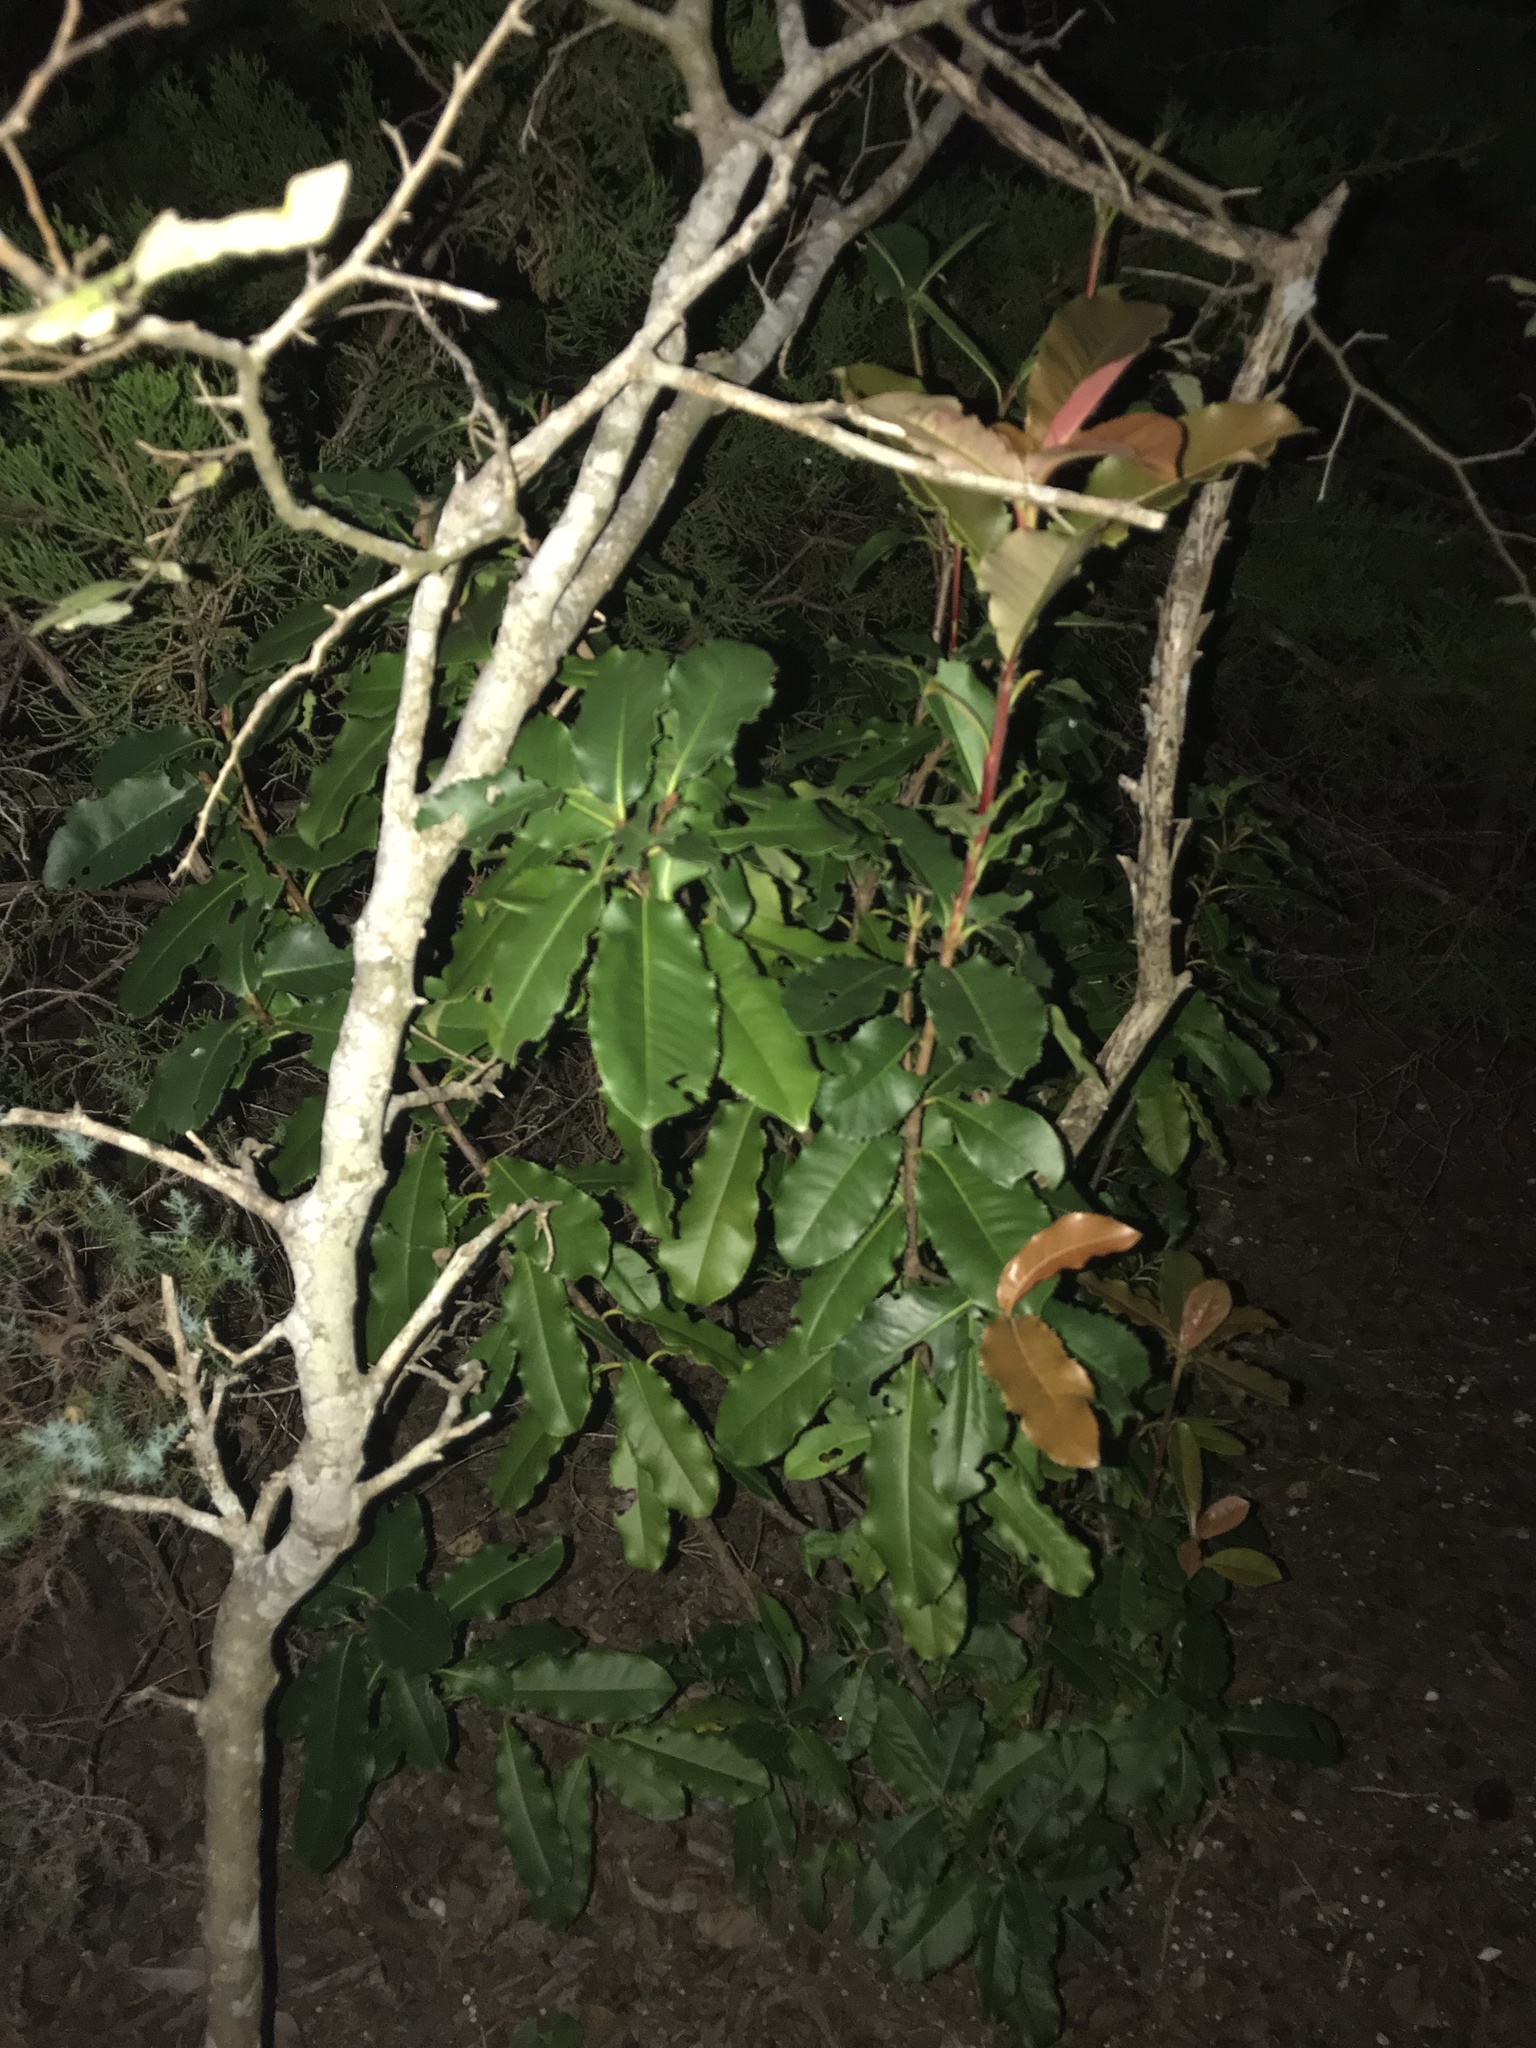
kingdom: Plantae
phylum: Tracheophyta
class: Magnoliopsida
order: Rosales
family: Rosaceae
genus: Photinia
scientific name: Photinia serratifolia
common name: Taiwanese photinia
